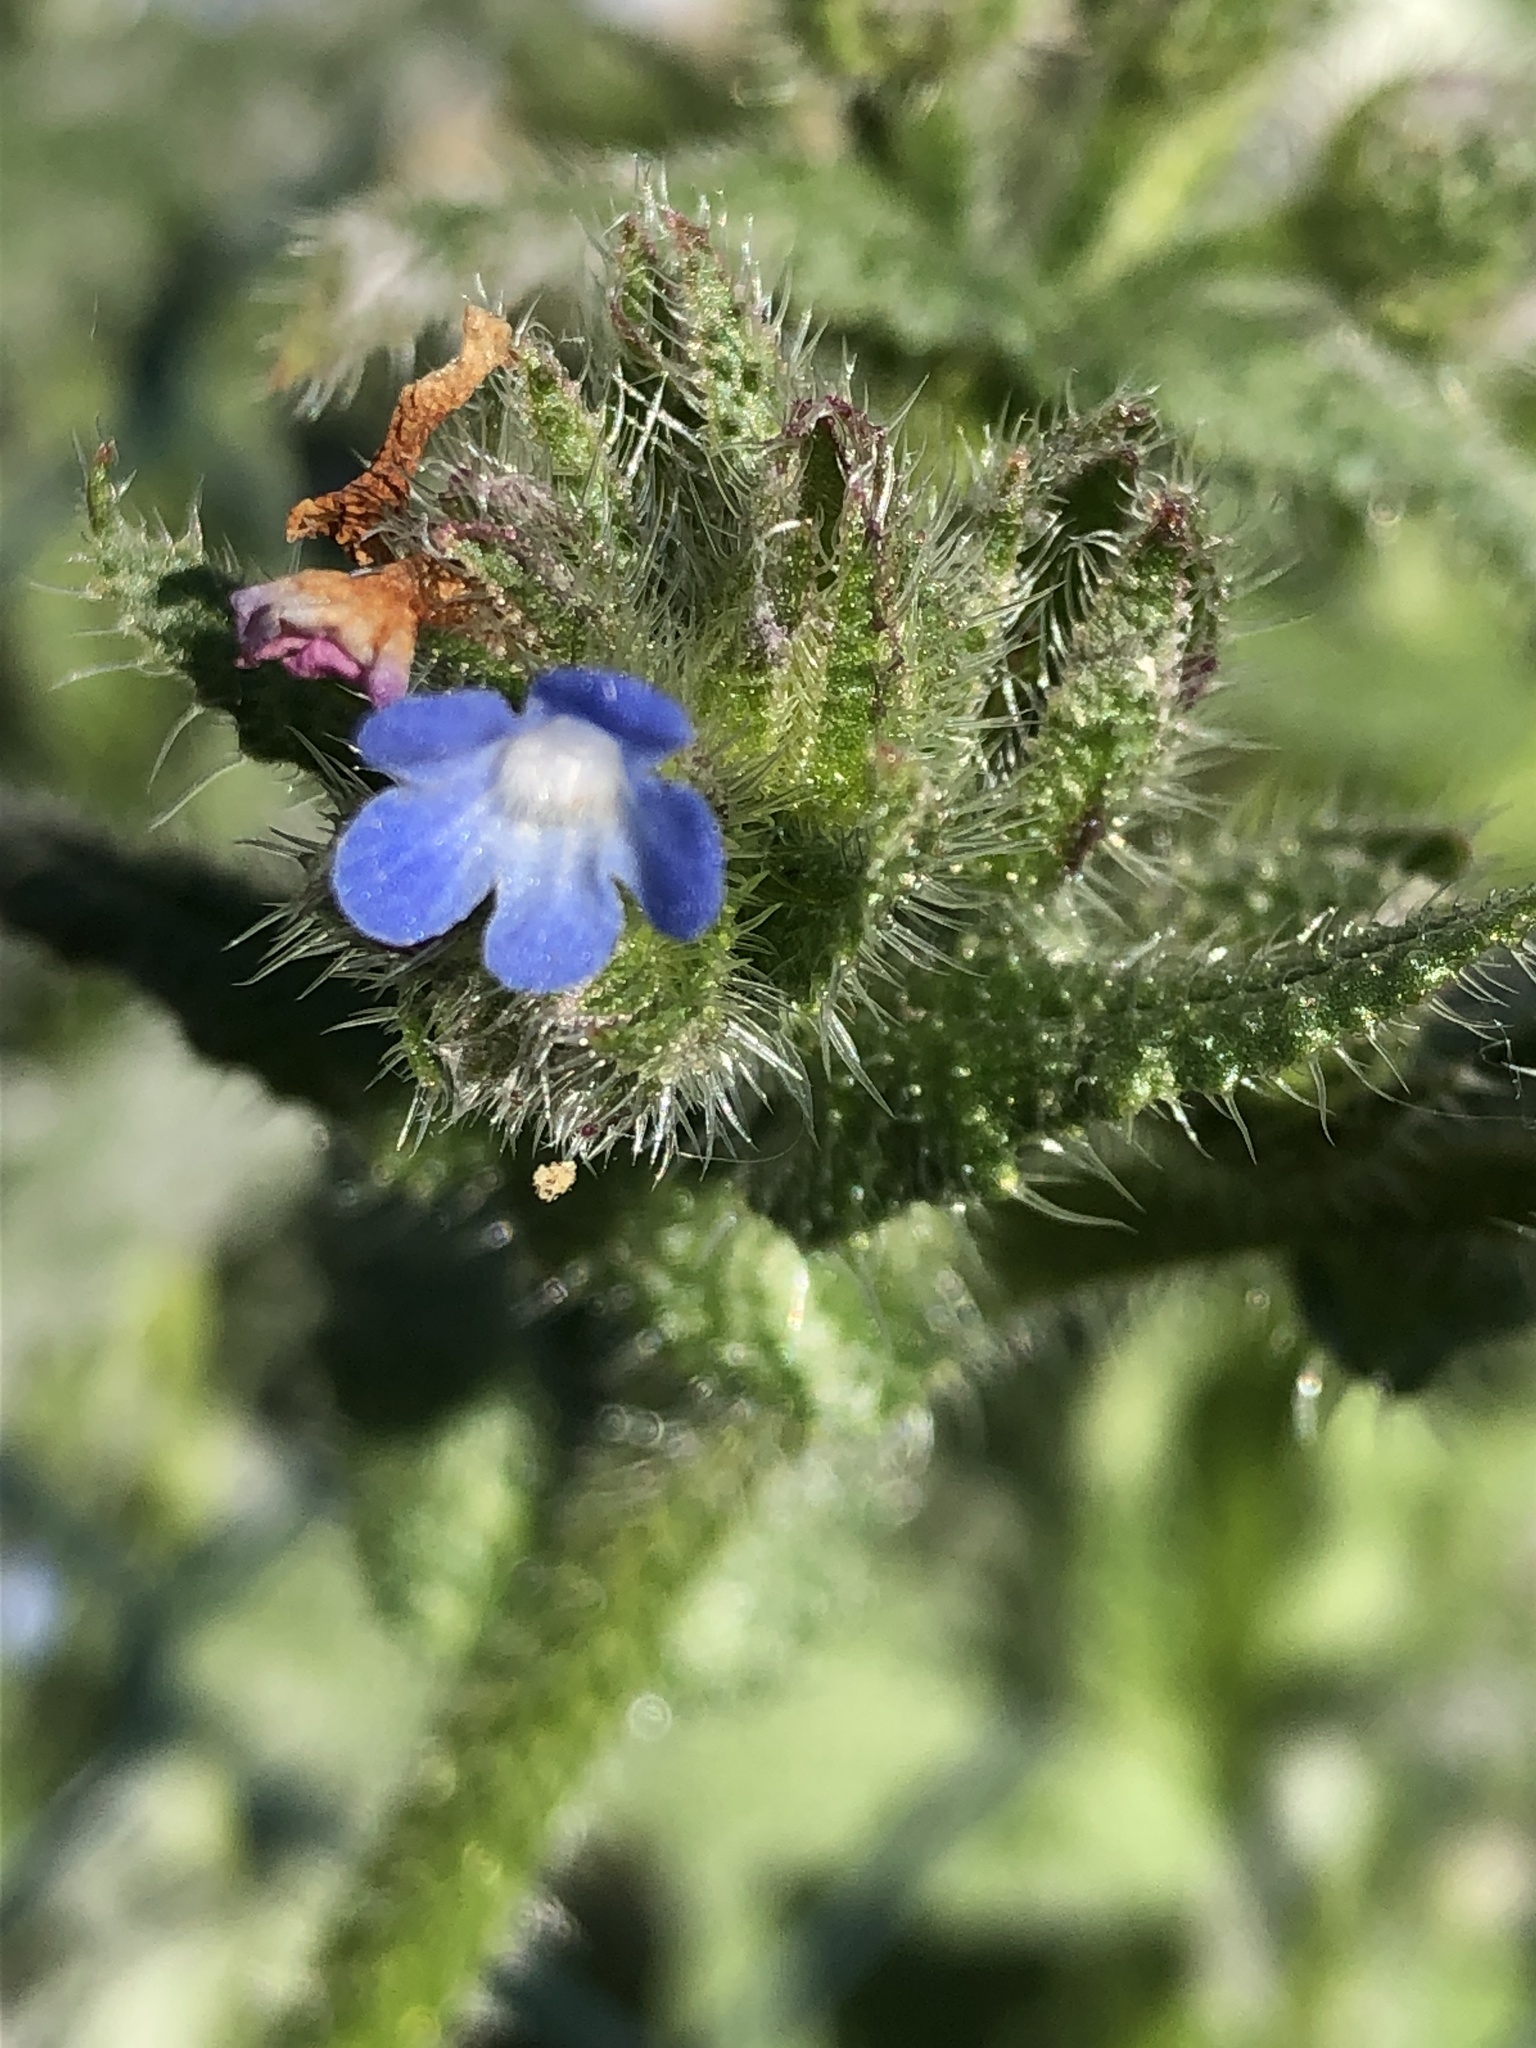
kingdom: Plantae
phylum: Tracheophyta
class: Magnoliopsida
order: Boraginales
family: Boraginaceae
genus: Lycopsis
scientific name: Lycopsis arvensis
